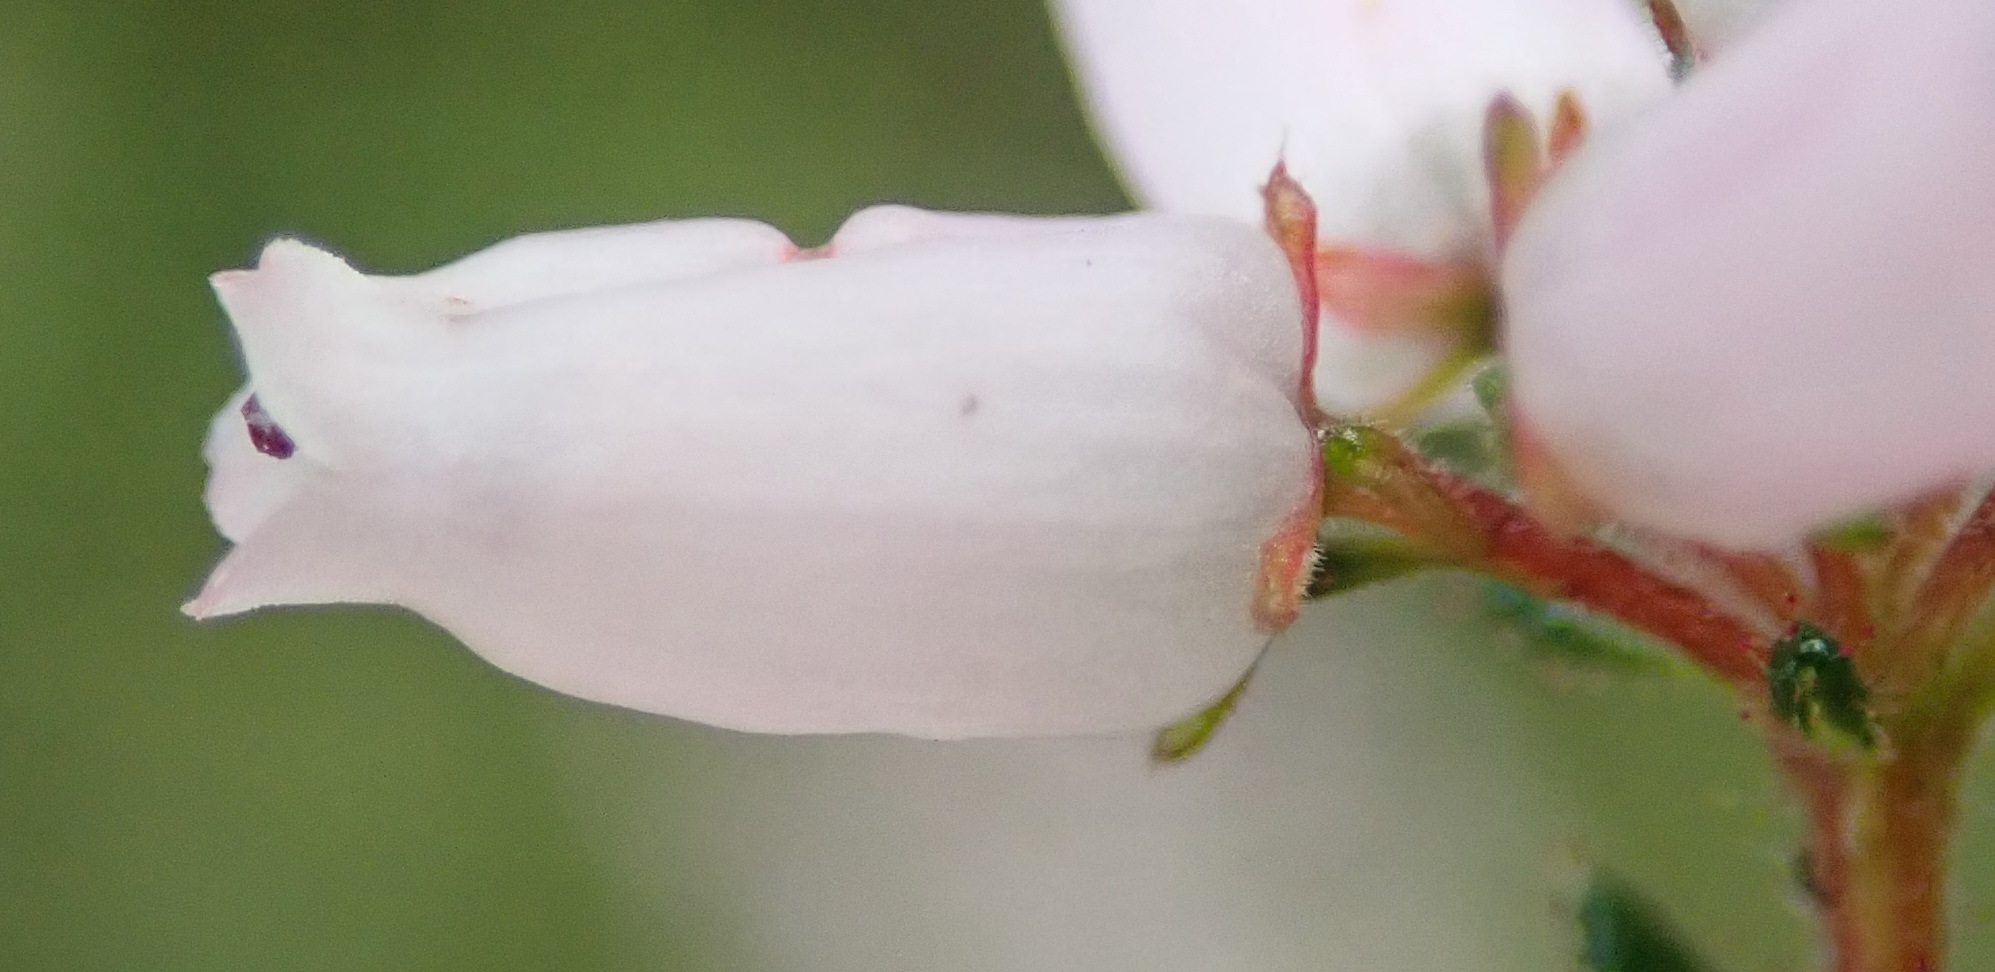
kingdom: Plantae
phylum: Tracheophyta
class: Magnoliopsida
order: Ericales
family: Ericaceae
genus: Erica
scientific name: Erica scabriuscula
